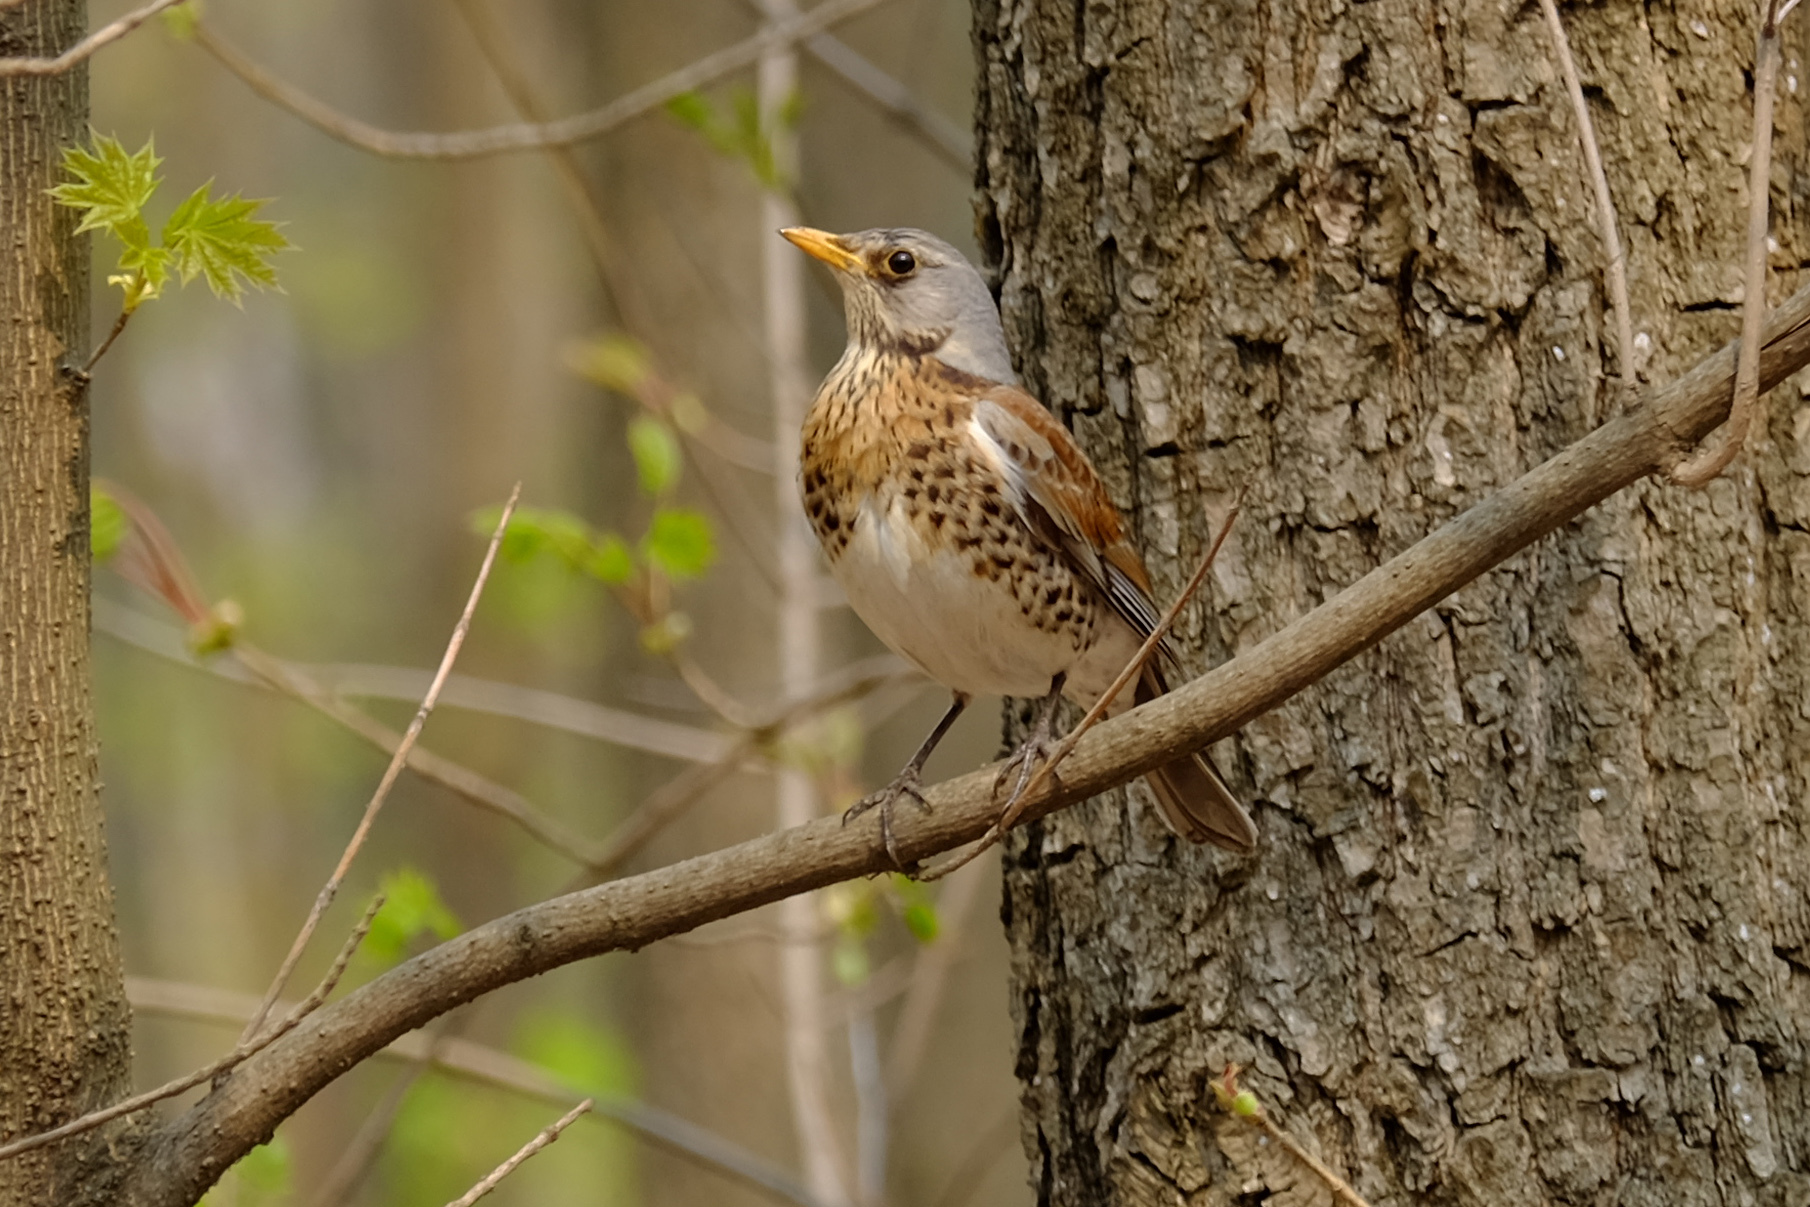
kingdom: Animalia
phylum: Chordata
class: Aves
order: Passeriformes
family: Turdidae
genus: Turdus
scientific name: Turdus pilaris
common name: Fieldfare
